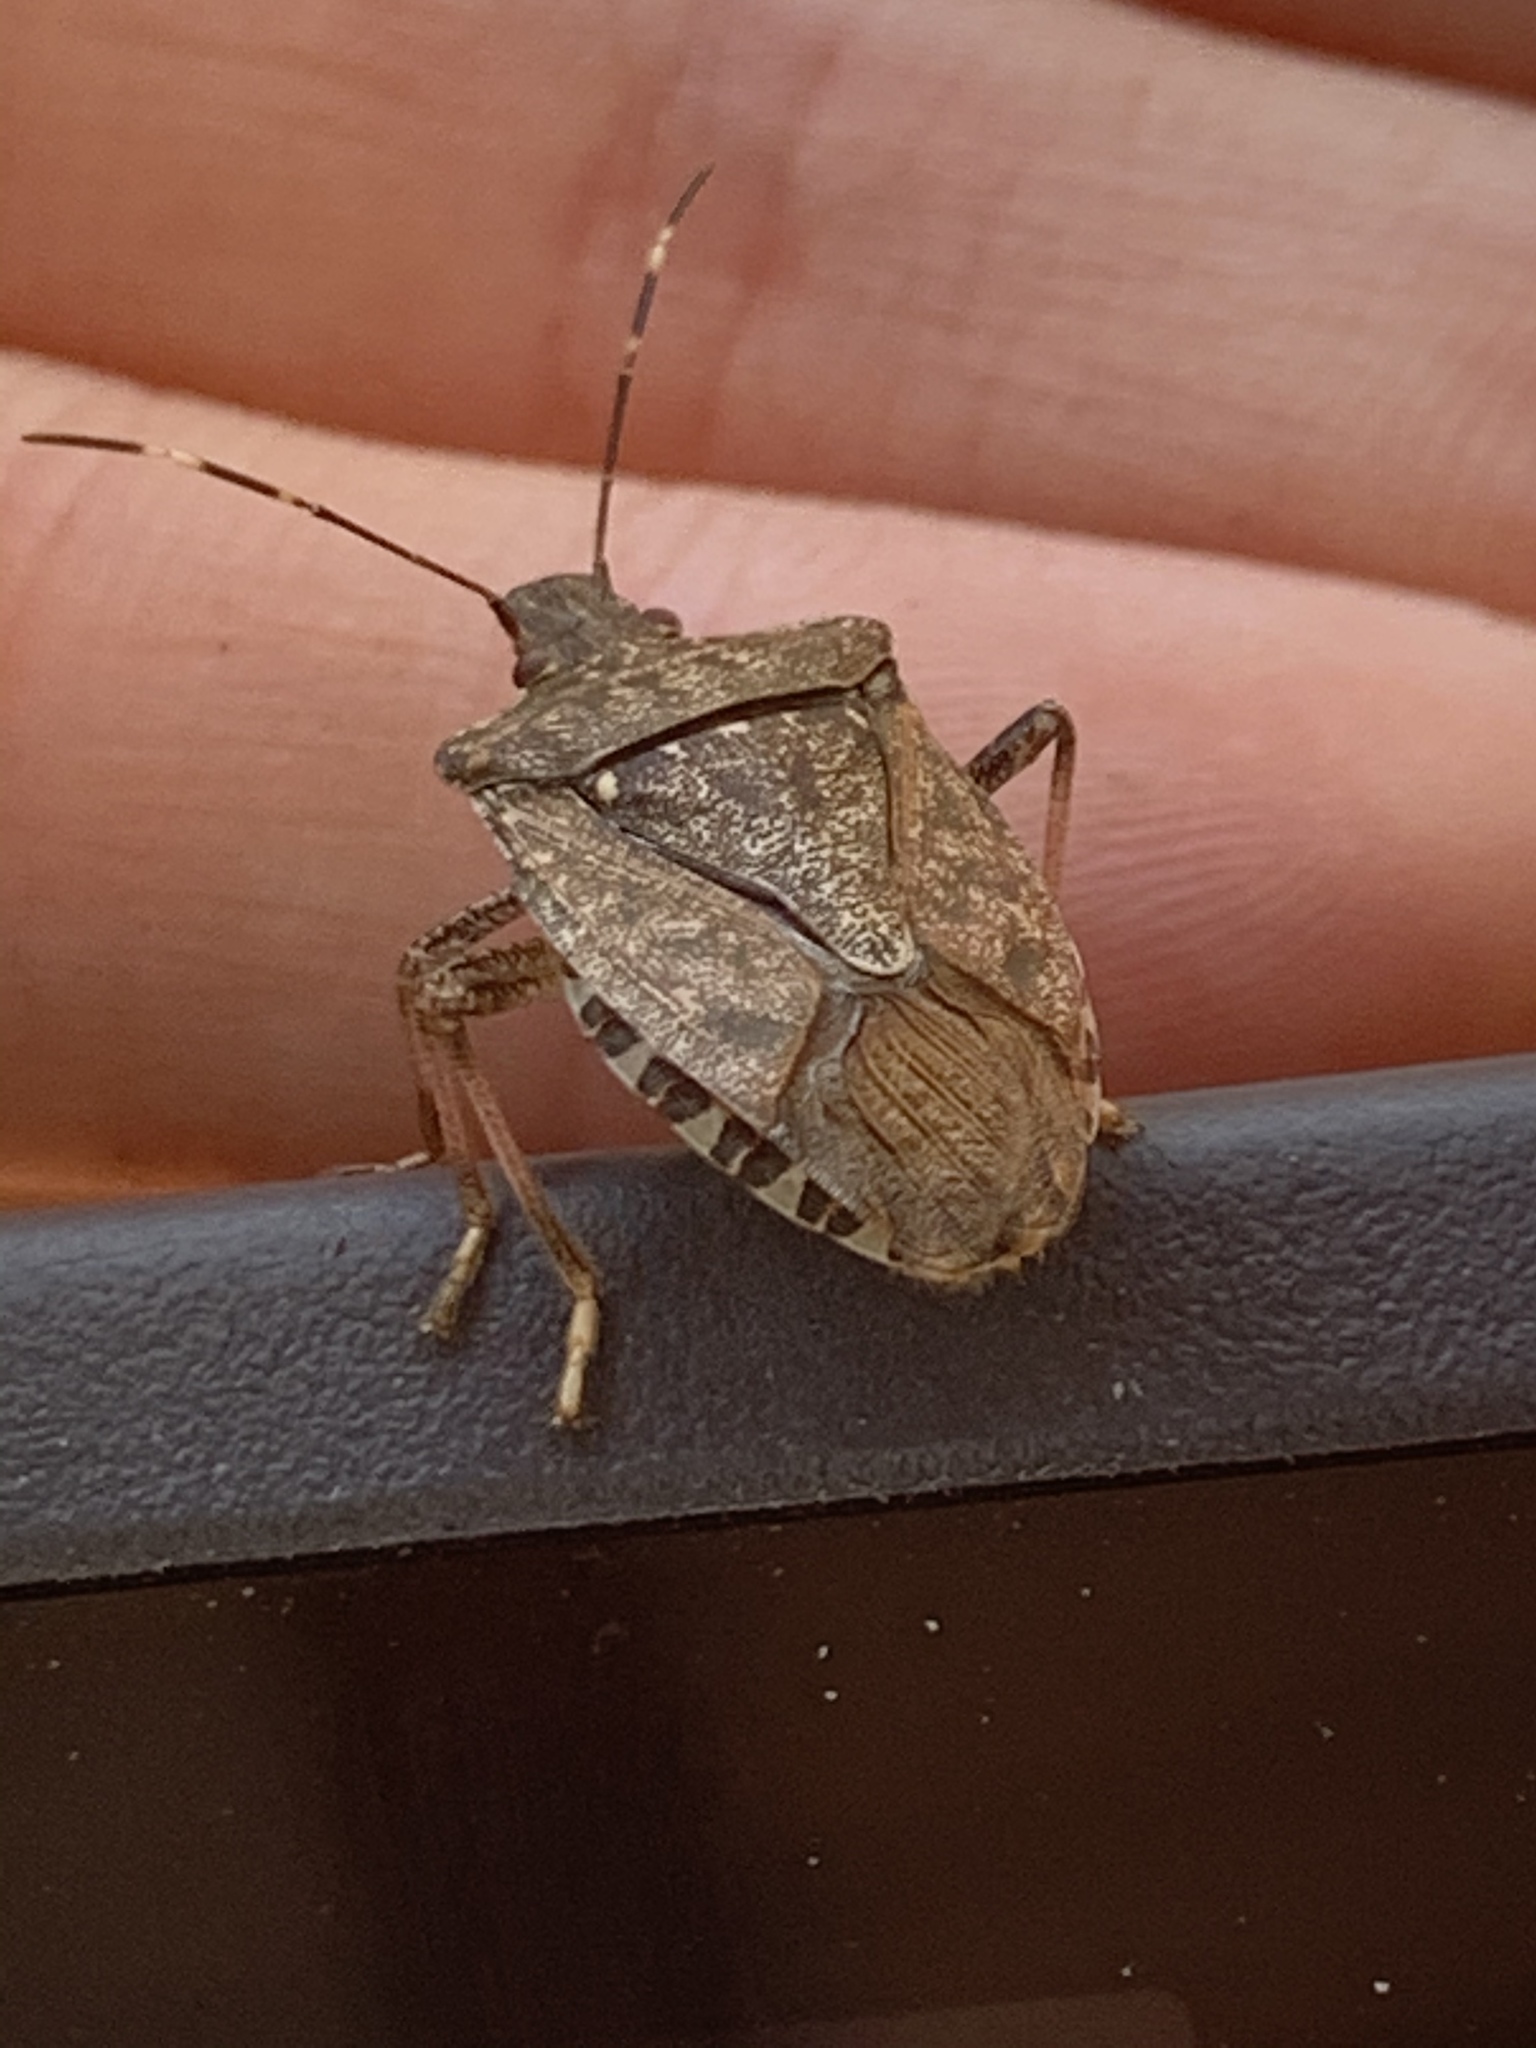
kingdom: Animalia
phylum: Arthropoda
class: Insecta
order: Hemiptera
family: Pentatomidae
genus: Halyomorpha
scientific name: Halyomorpha halys
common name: Brown marmorated stink bug
